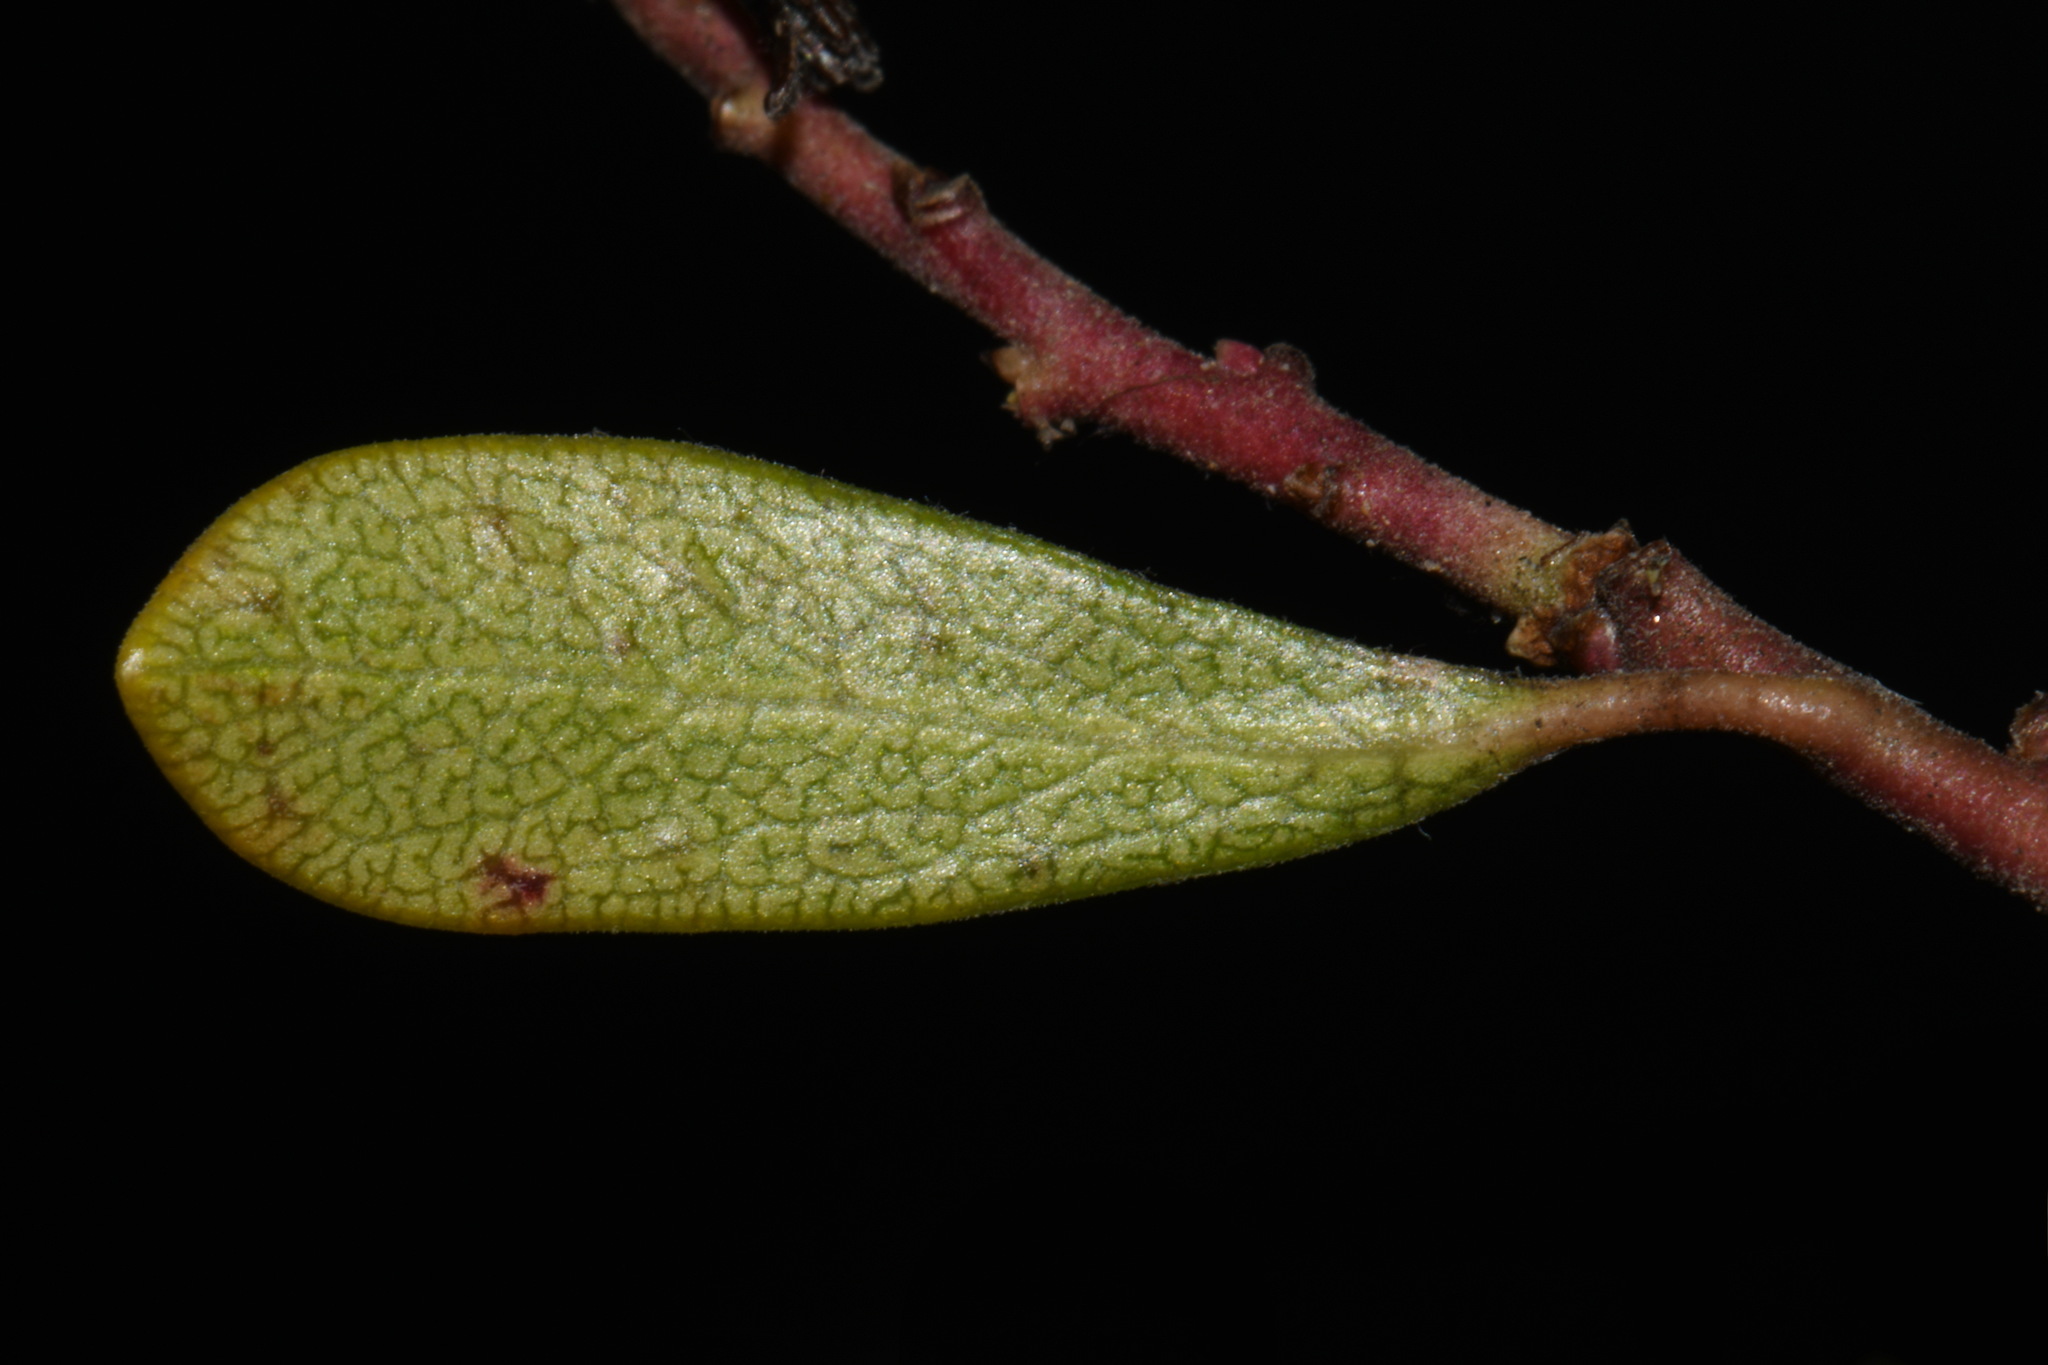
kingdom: Plantae
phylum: Tracheophyta
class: Magnoliopsida
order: Ericales
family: Ericaceae
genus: Arctostaphylos
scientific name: Arctostaphylos uva-ursi
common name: Bearberry
